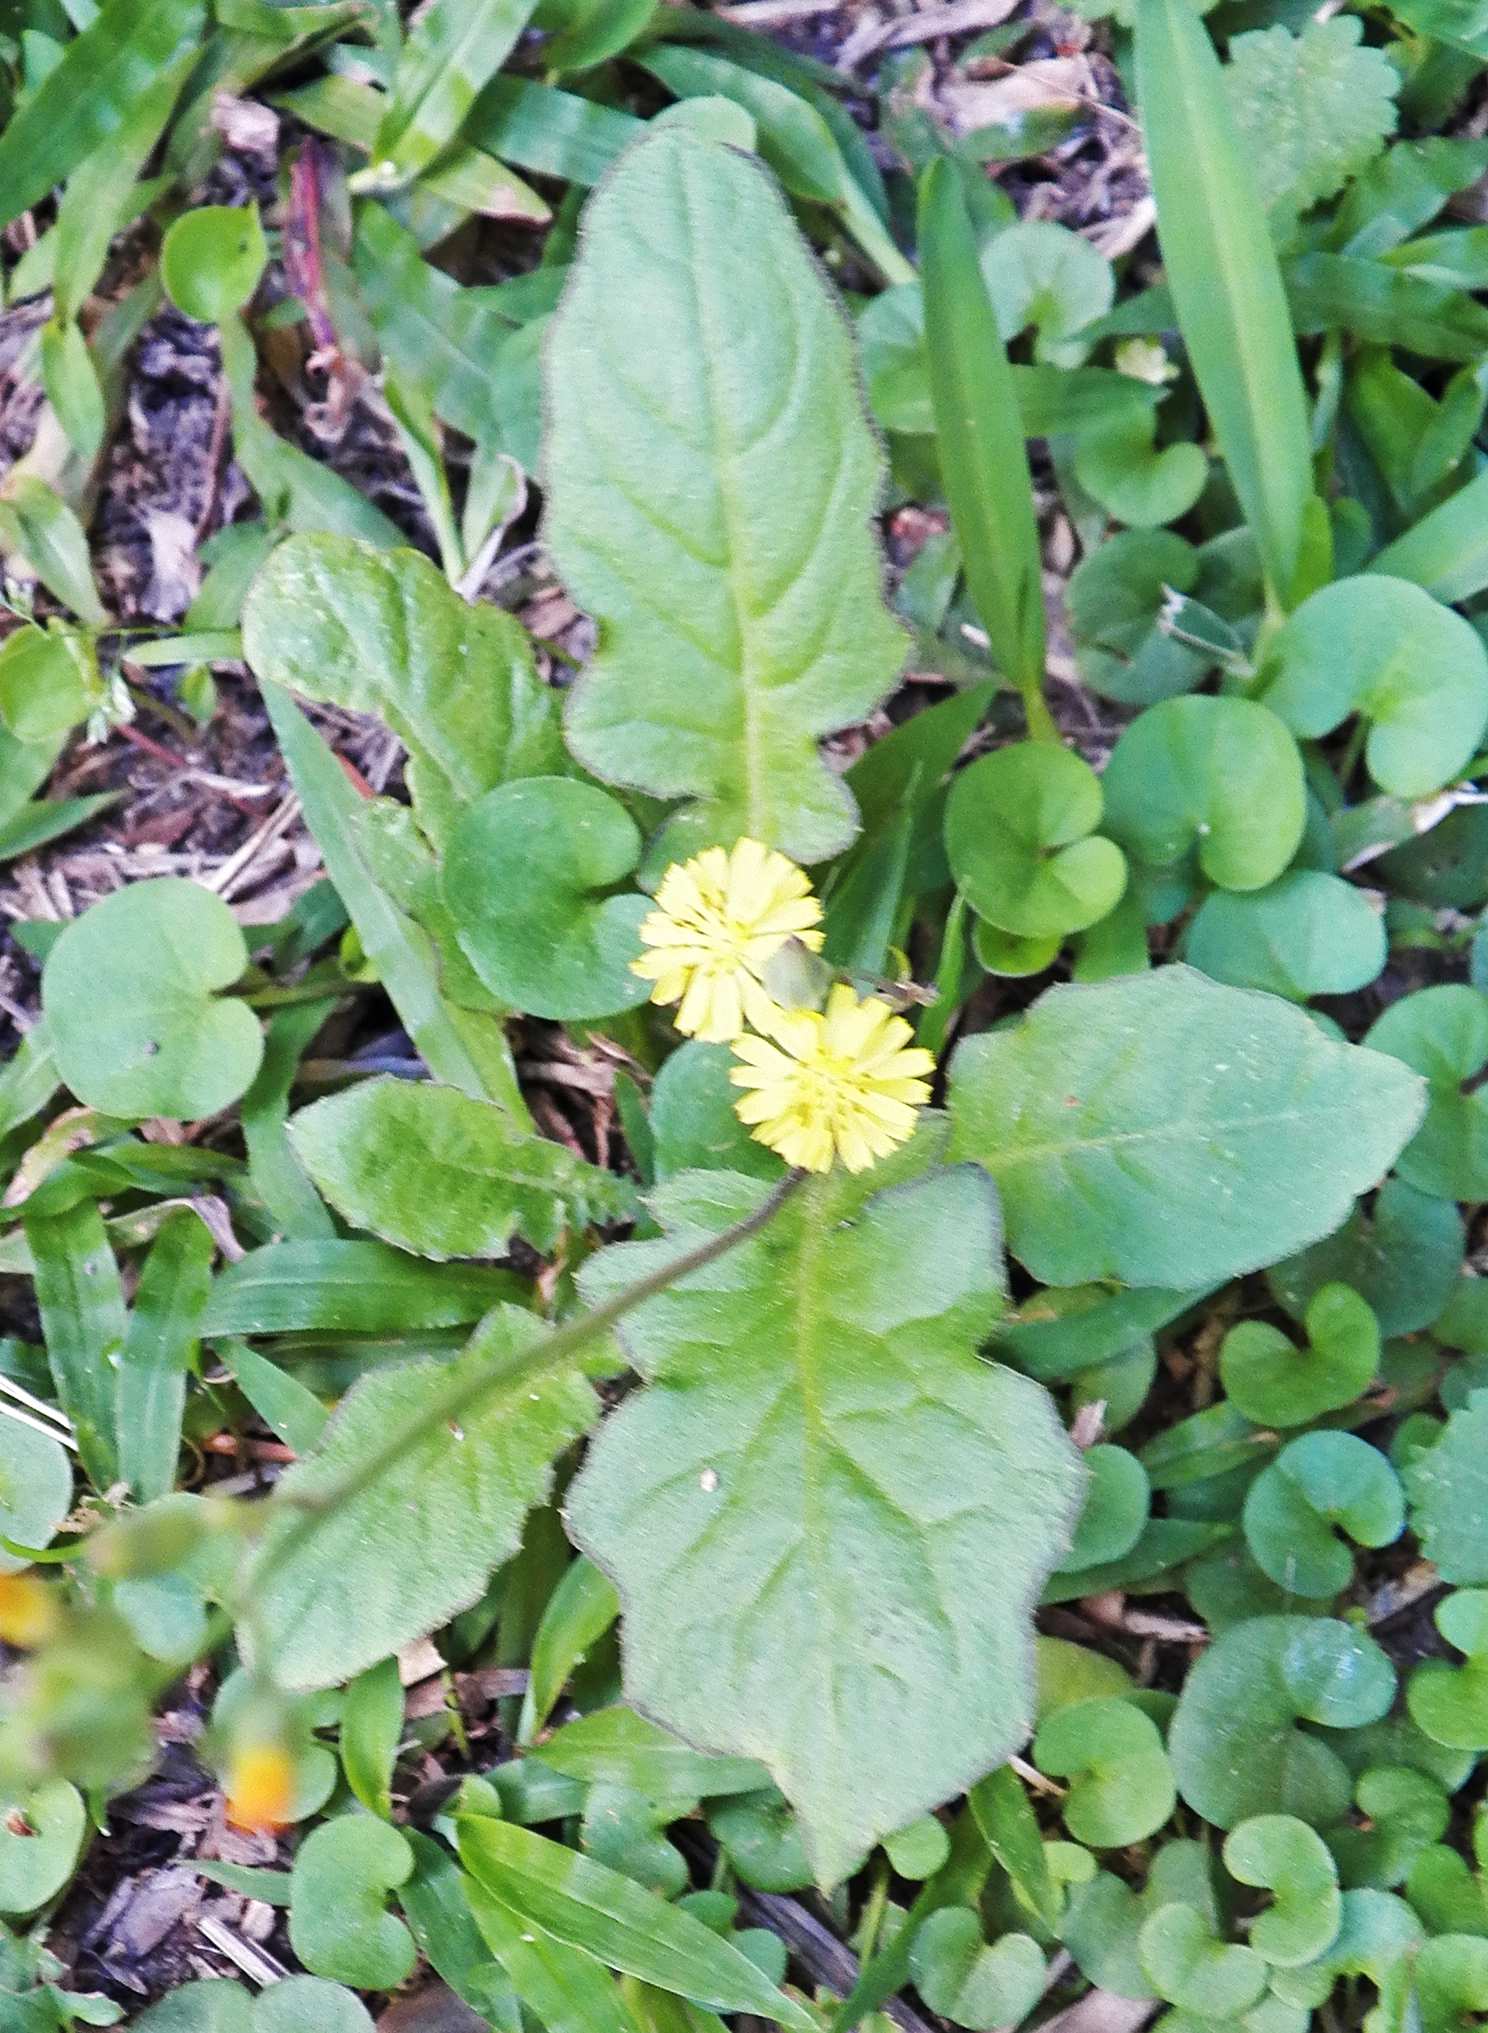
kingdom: Plantae
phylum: Tracheophyta
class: Magnoliopsida
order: Asterales
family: Asteraceae
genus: Youngia
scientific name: Youngia japonica
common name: Oriental false hawksbeard
